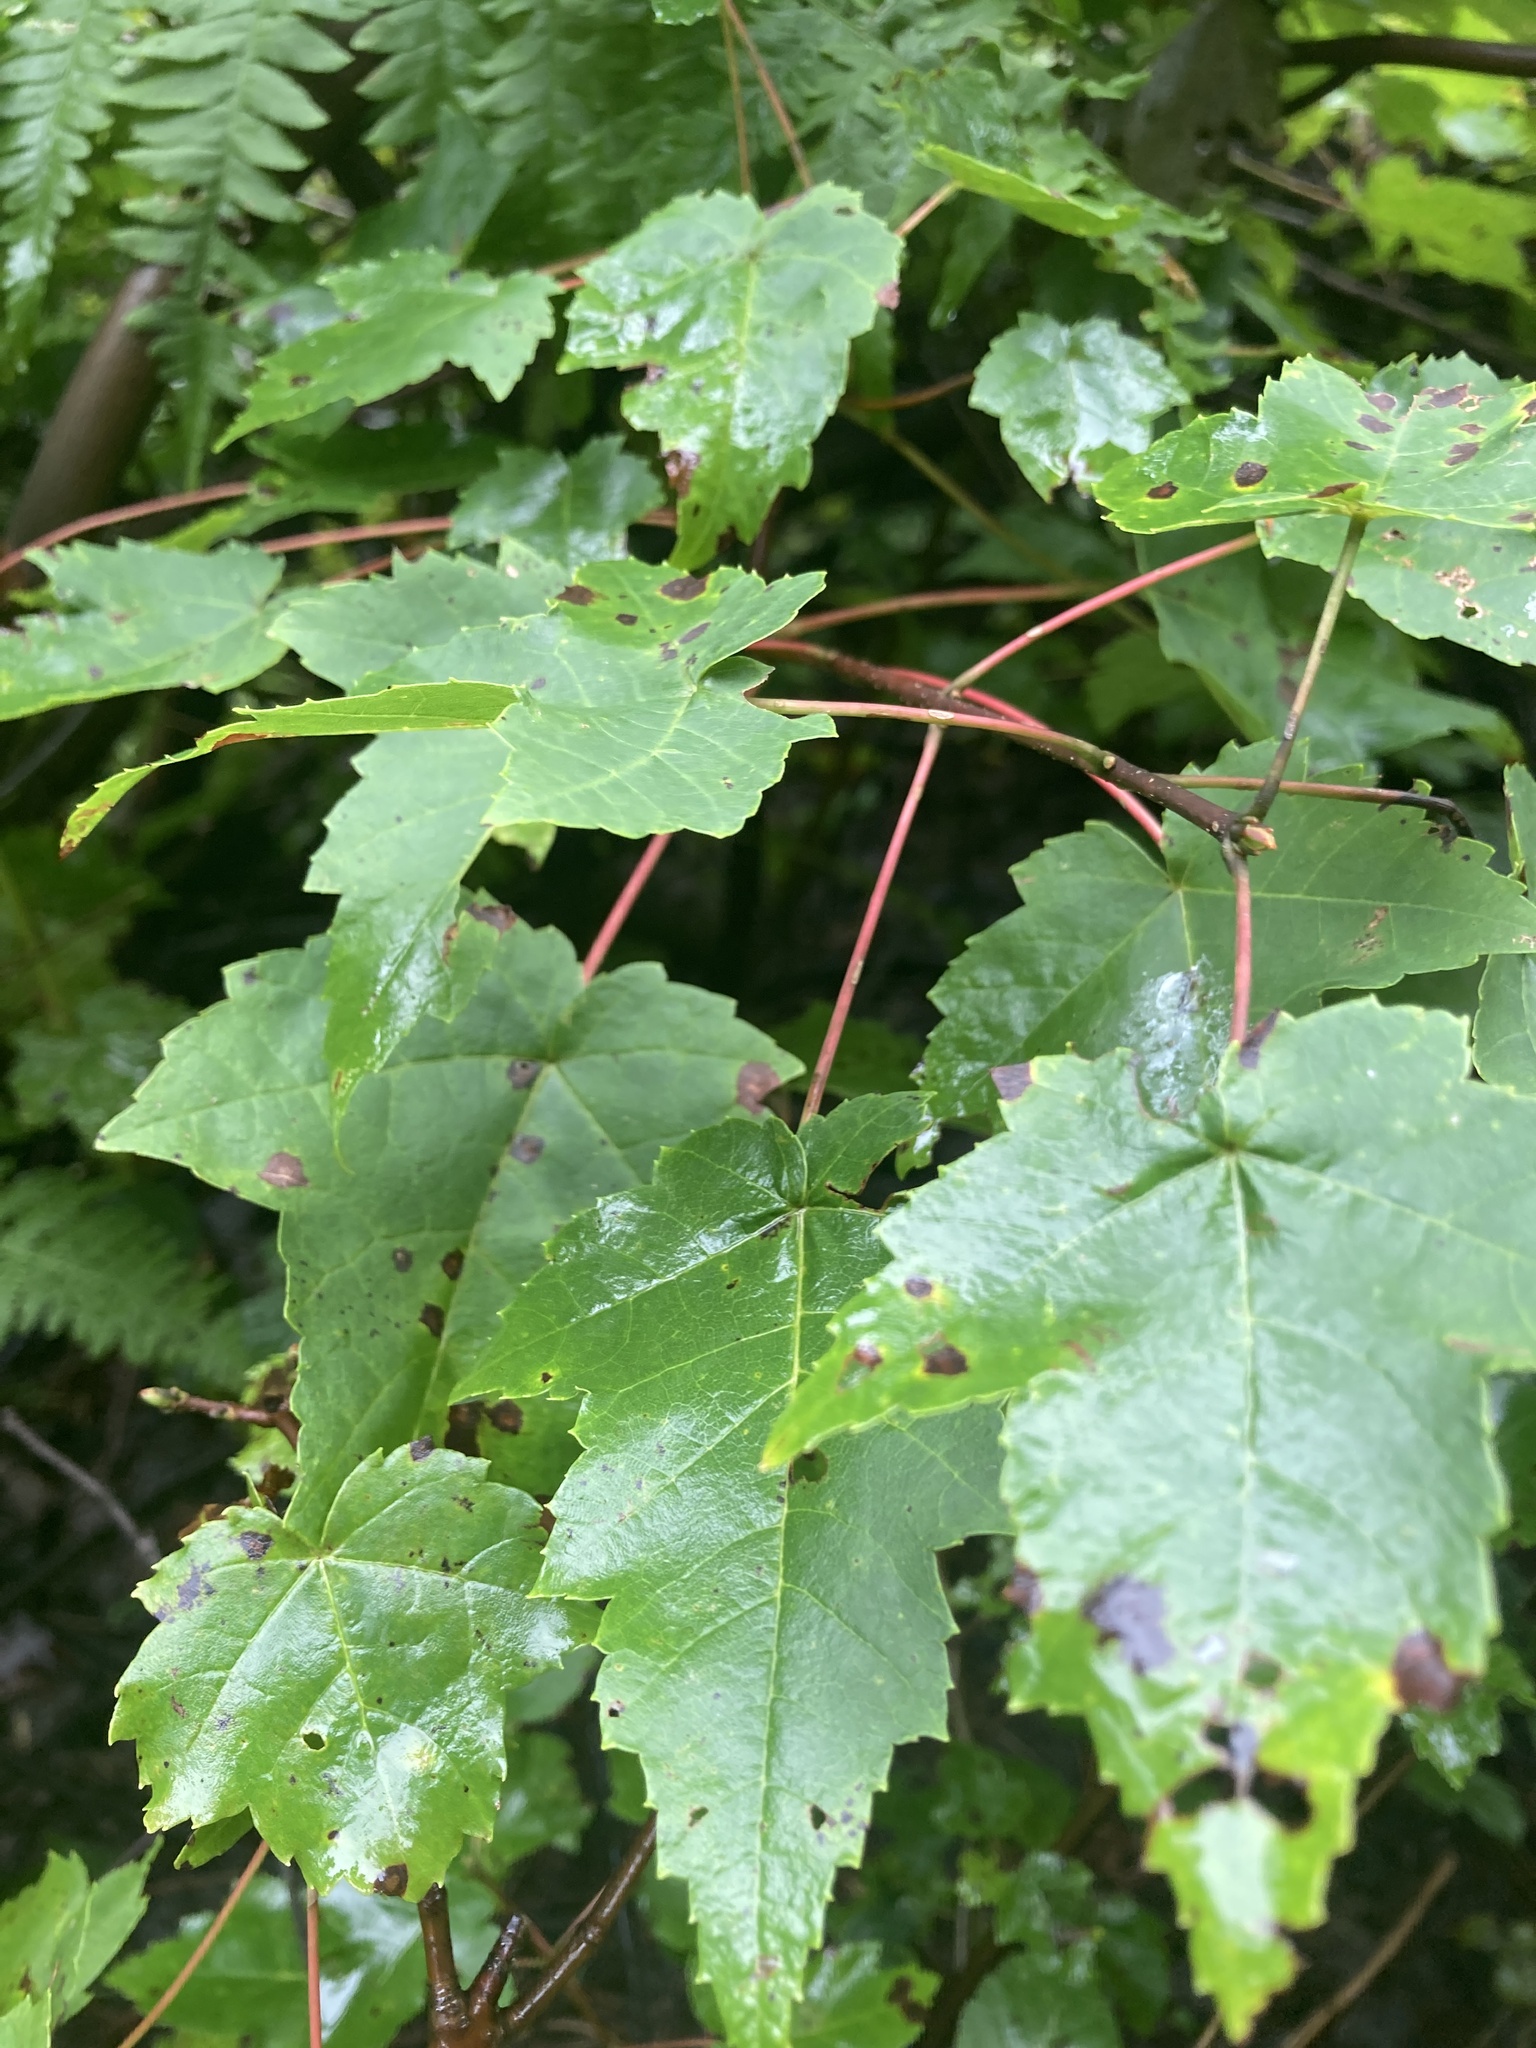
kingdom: Plantae
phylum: Tracheophyta
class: Magnoliopsida
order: Sapindales
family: Sapindaceae
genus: Acer
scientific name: Acer rubrum
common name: Red maple
